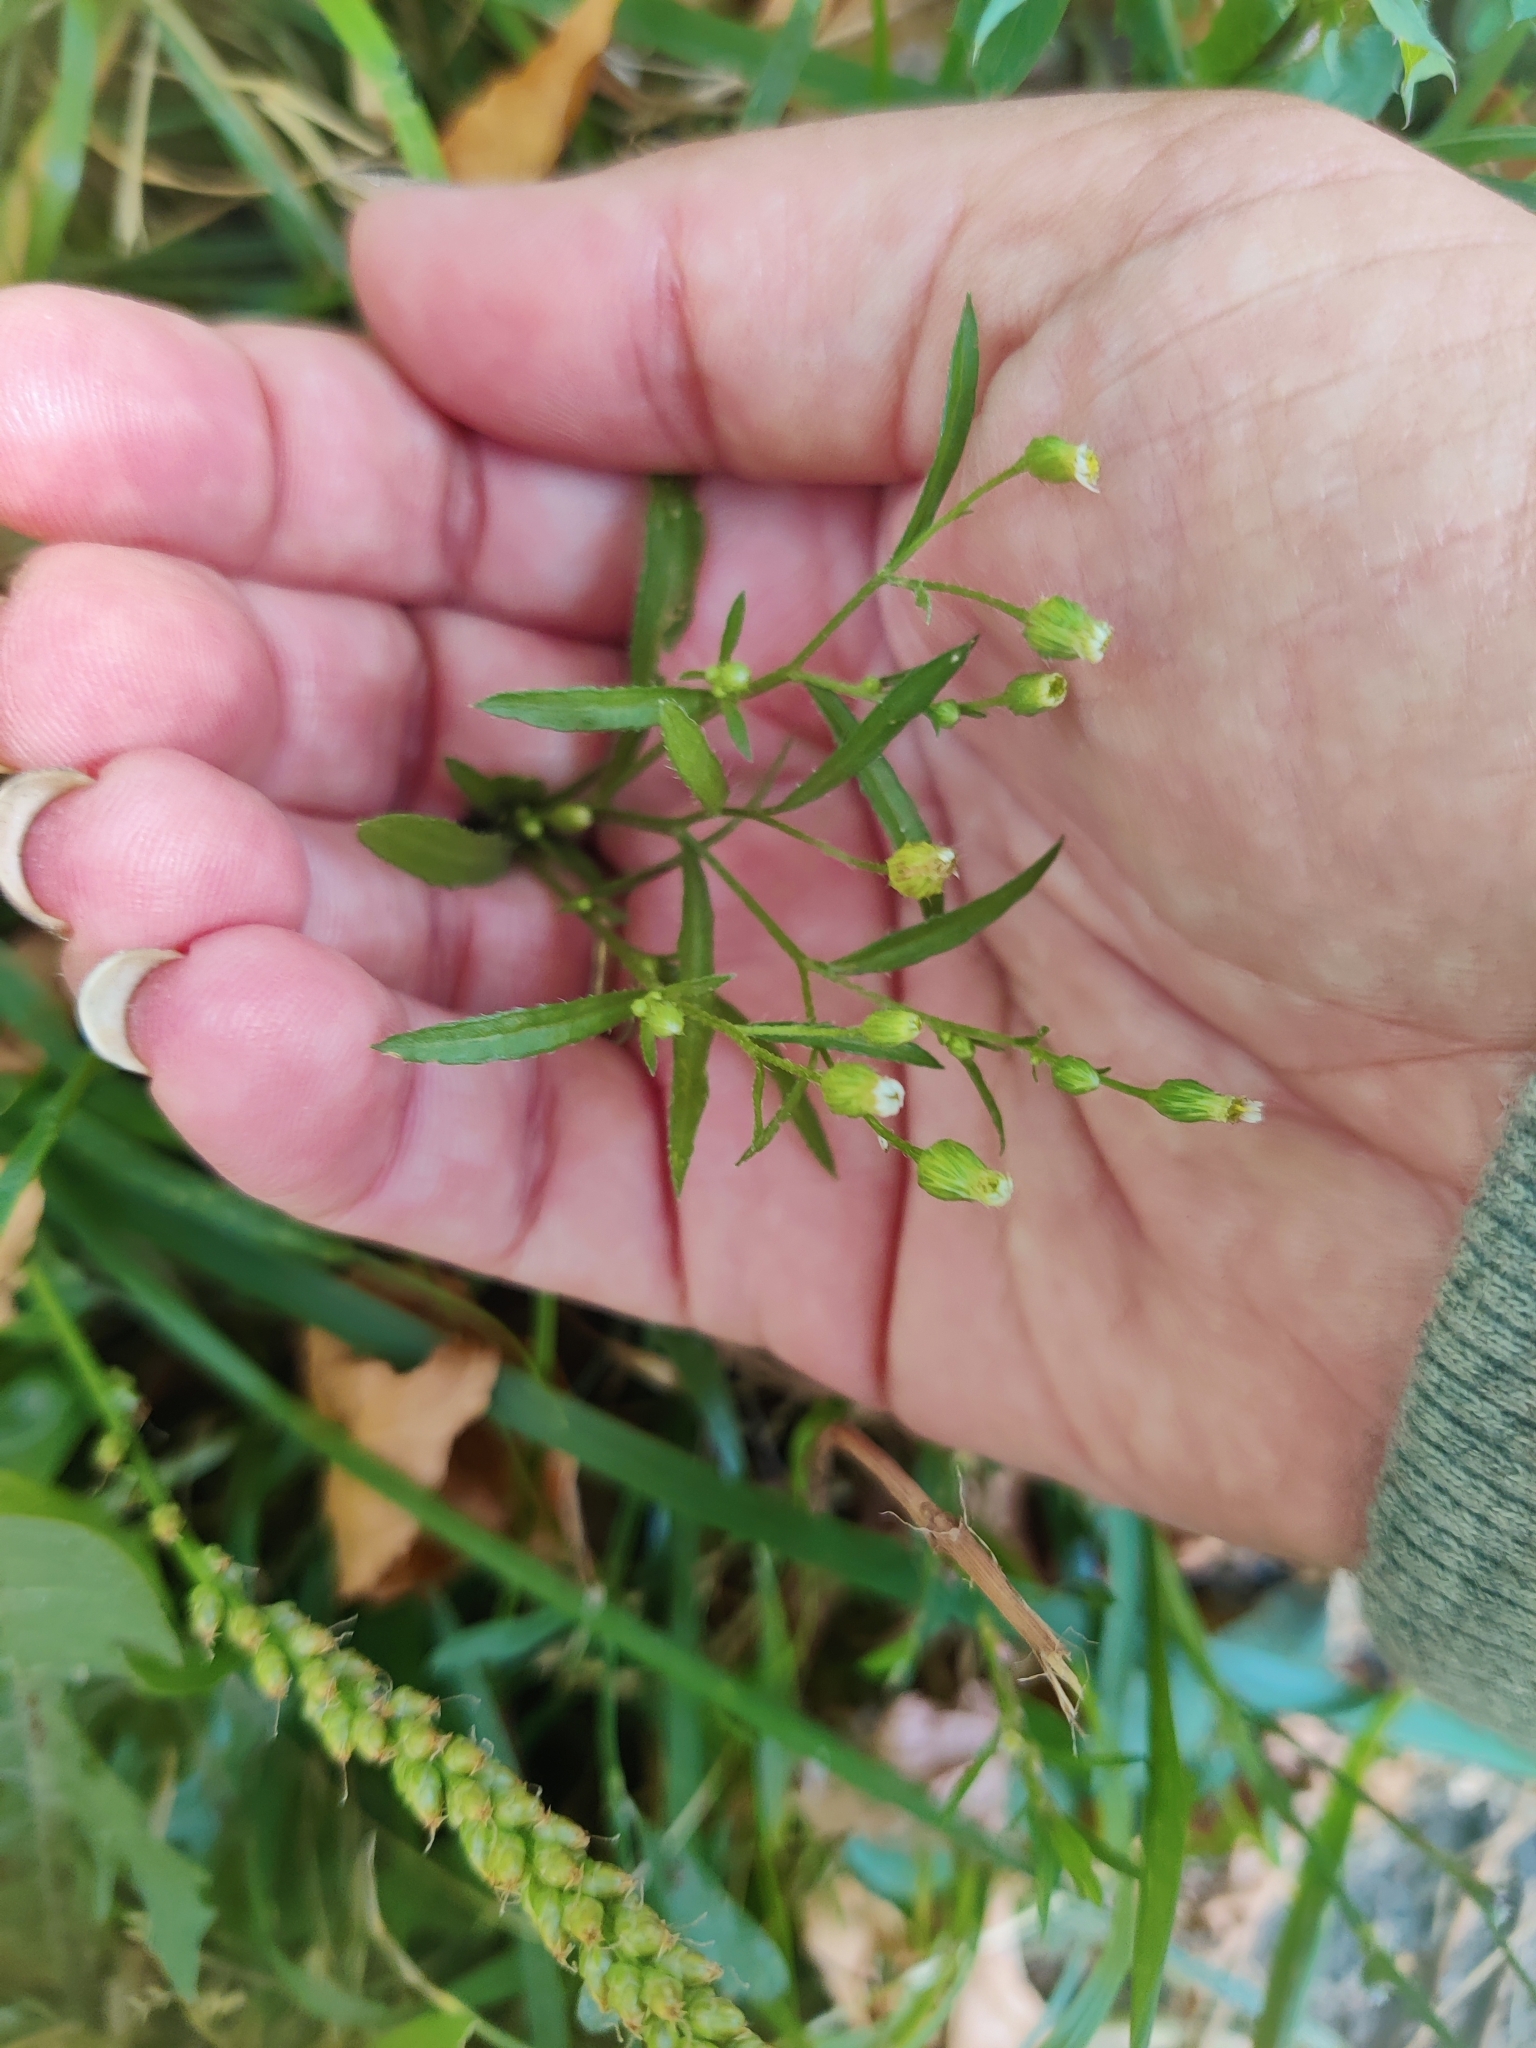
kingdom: Plantae
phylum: Tracheophyta
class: Magnoliopsida
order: Asterales
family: Asteraceae
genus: Erigeron
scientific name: Erigeron canadensis
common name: Canadian fleabane
